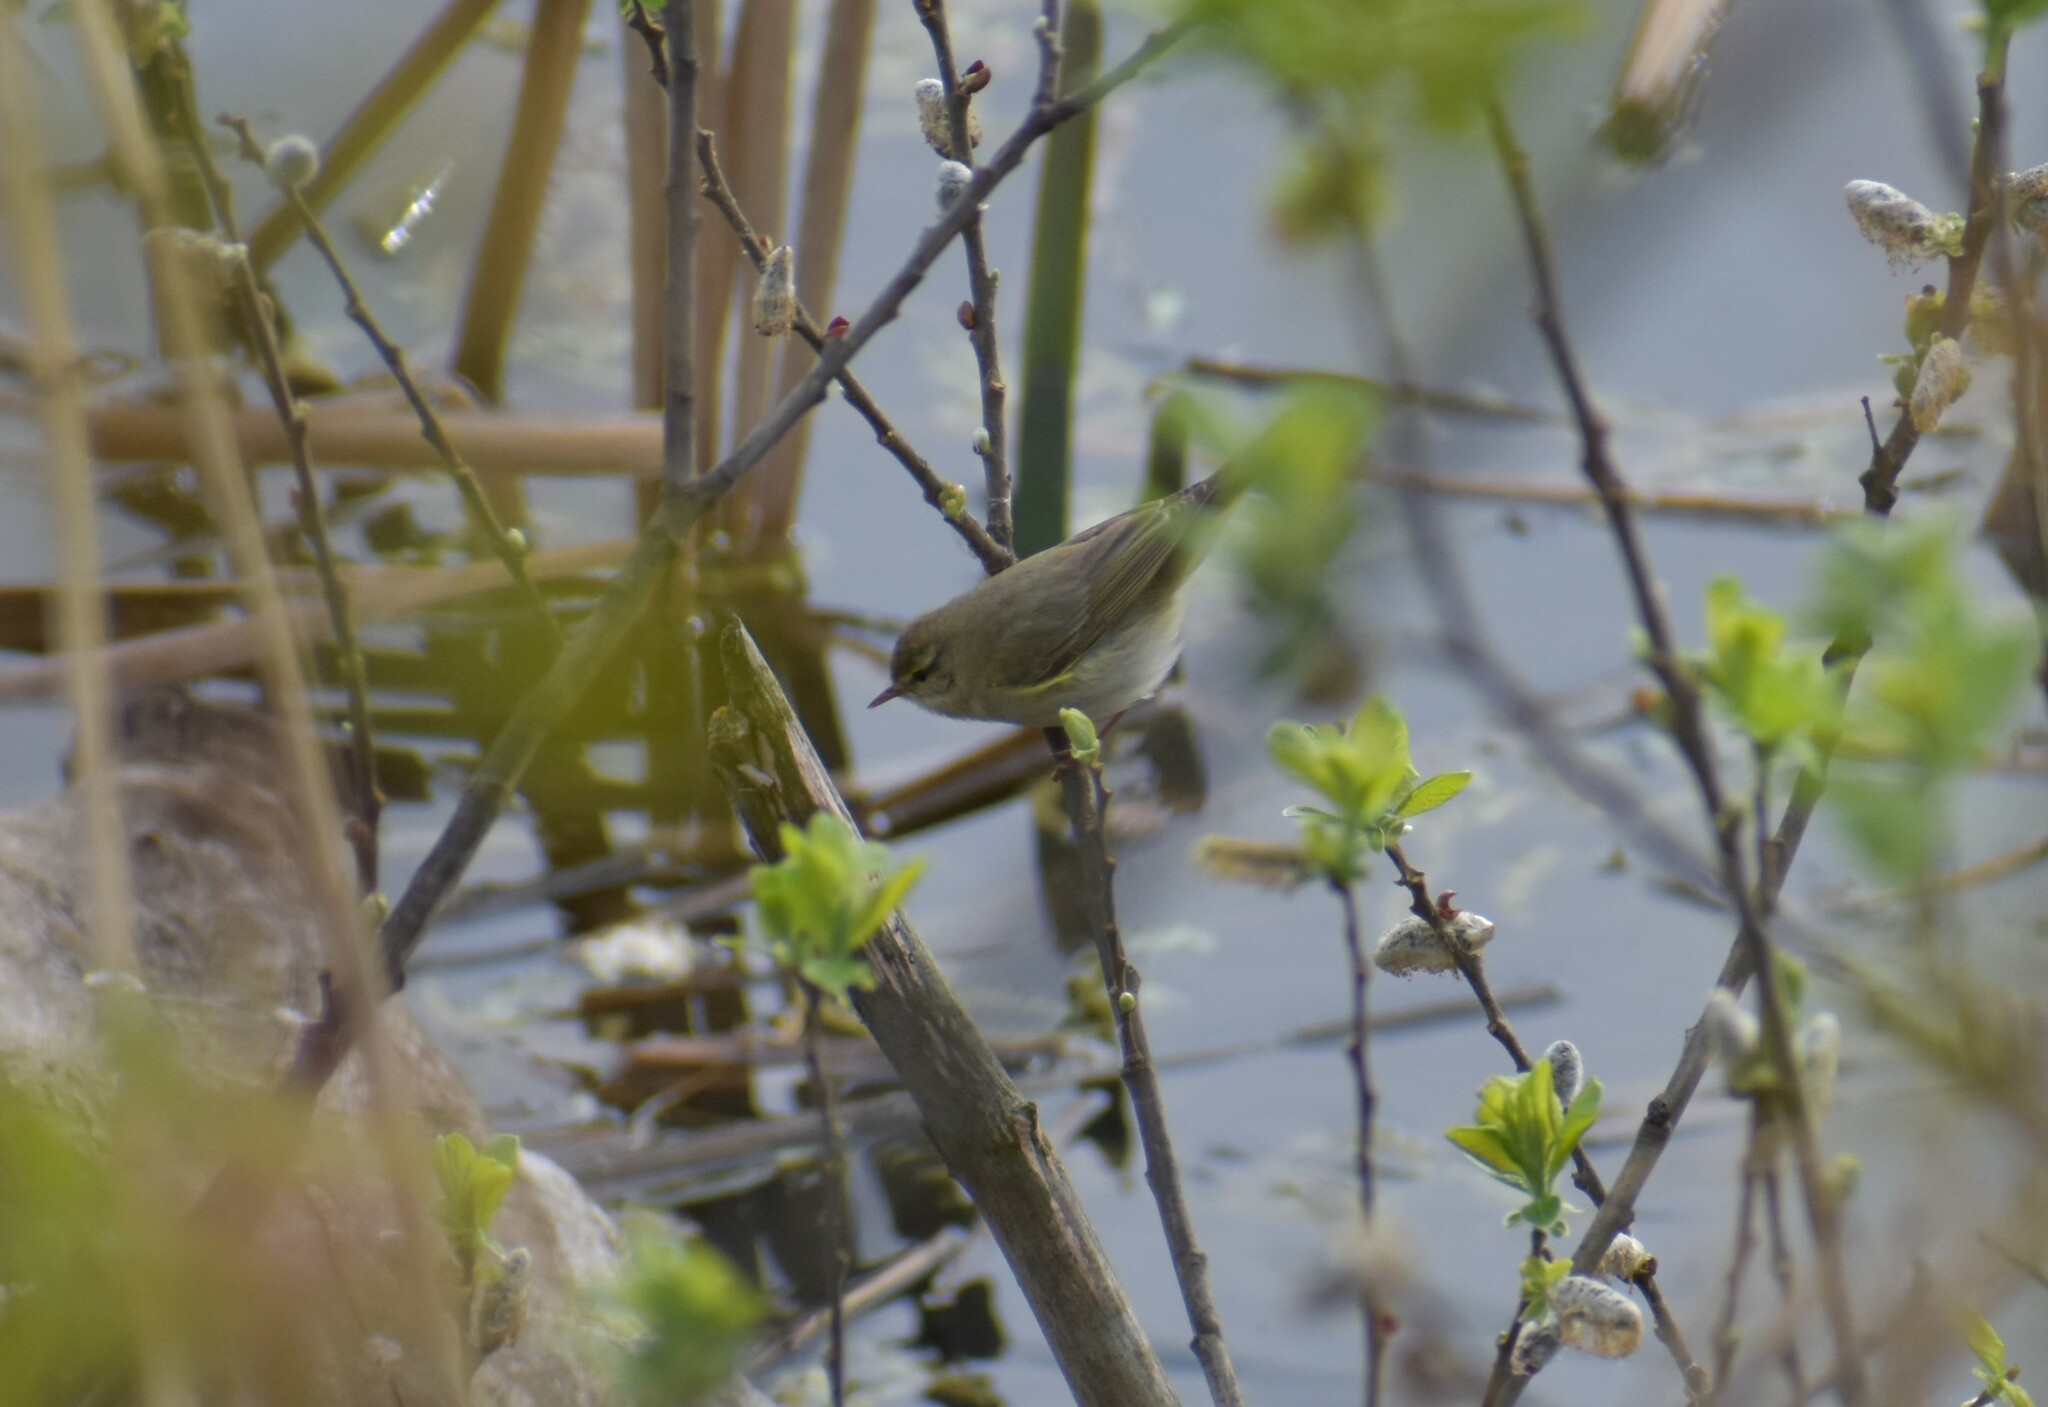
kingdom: Animalia
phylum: Chordata
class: Aves
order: Passeriformes
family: Phylloscopidae
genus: Phylloscopus
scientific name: Phylloscopus trochilus
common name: Willow warbler
